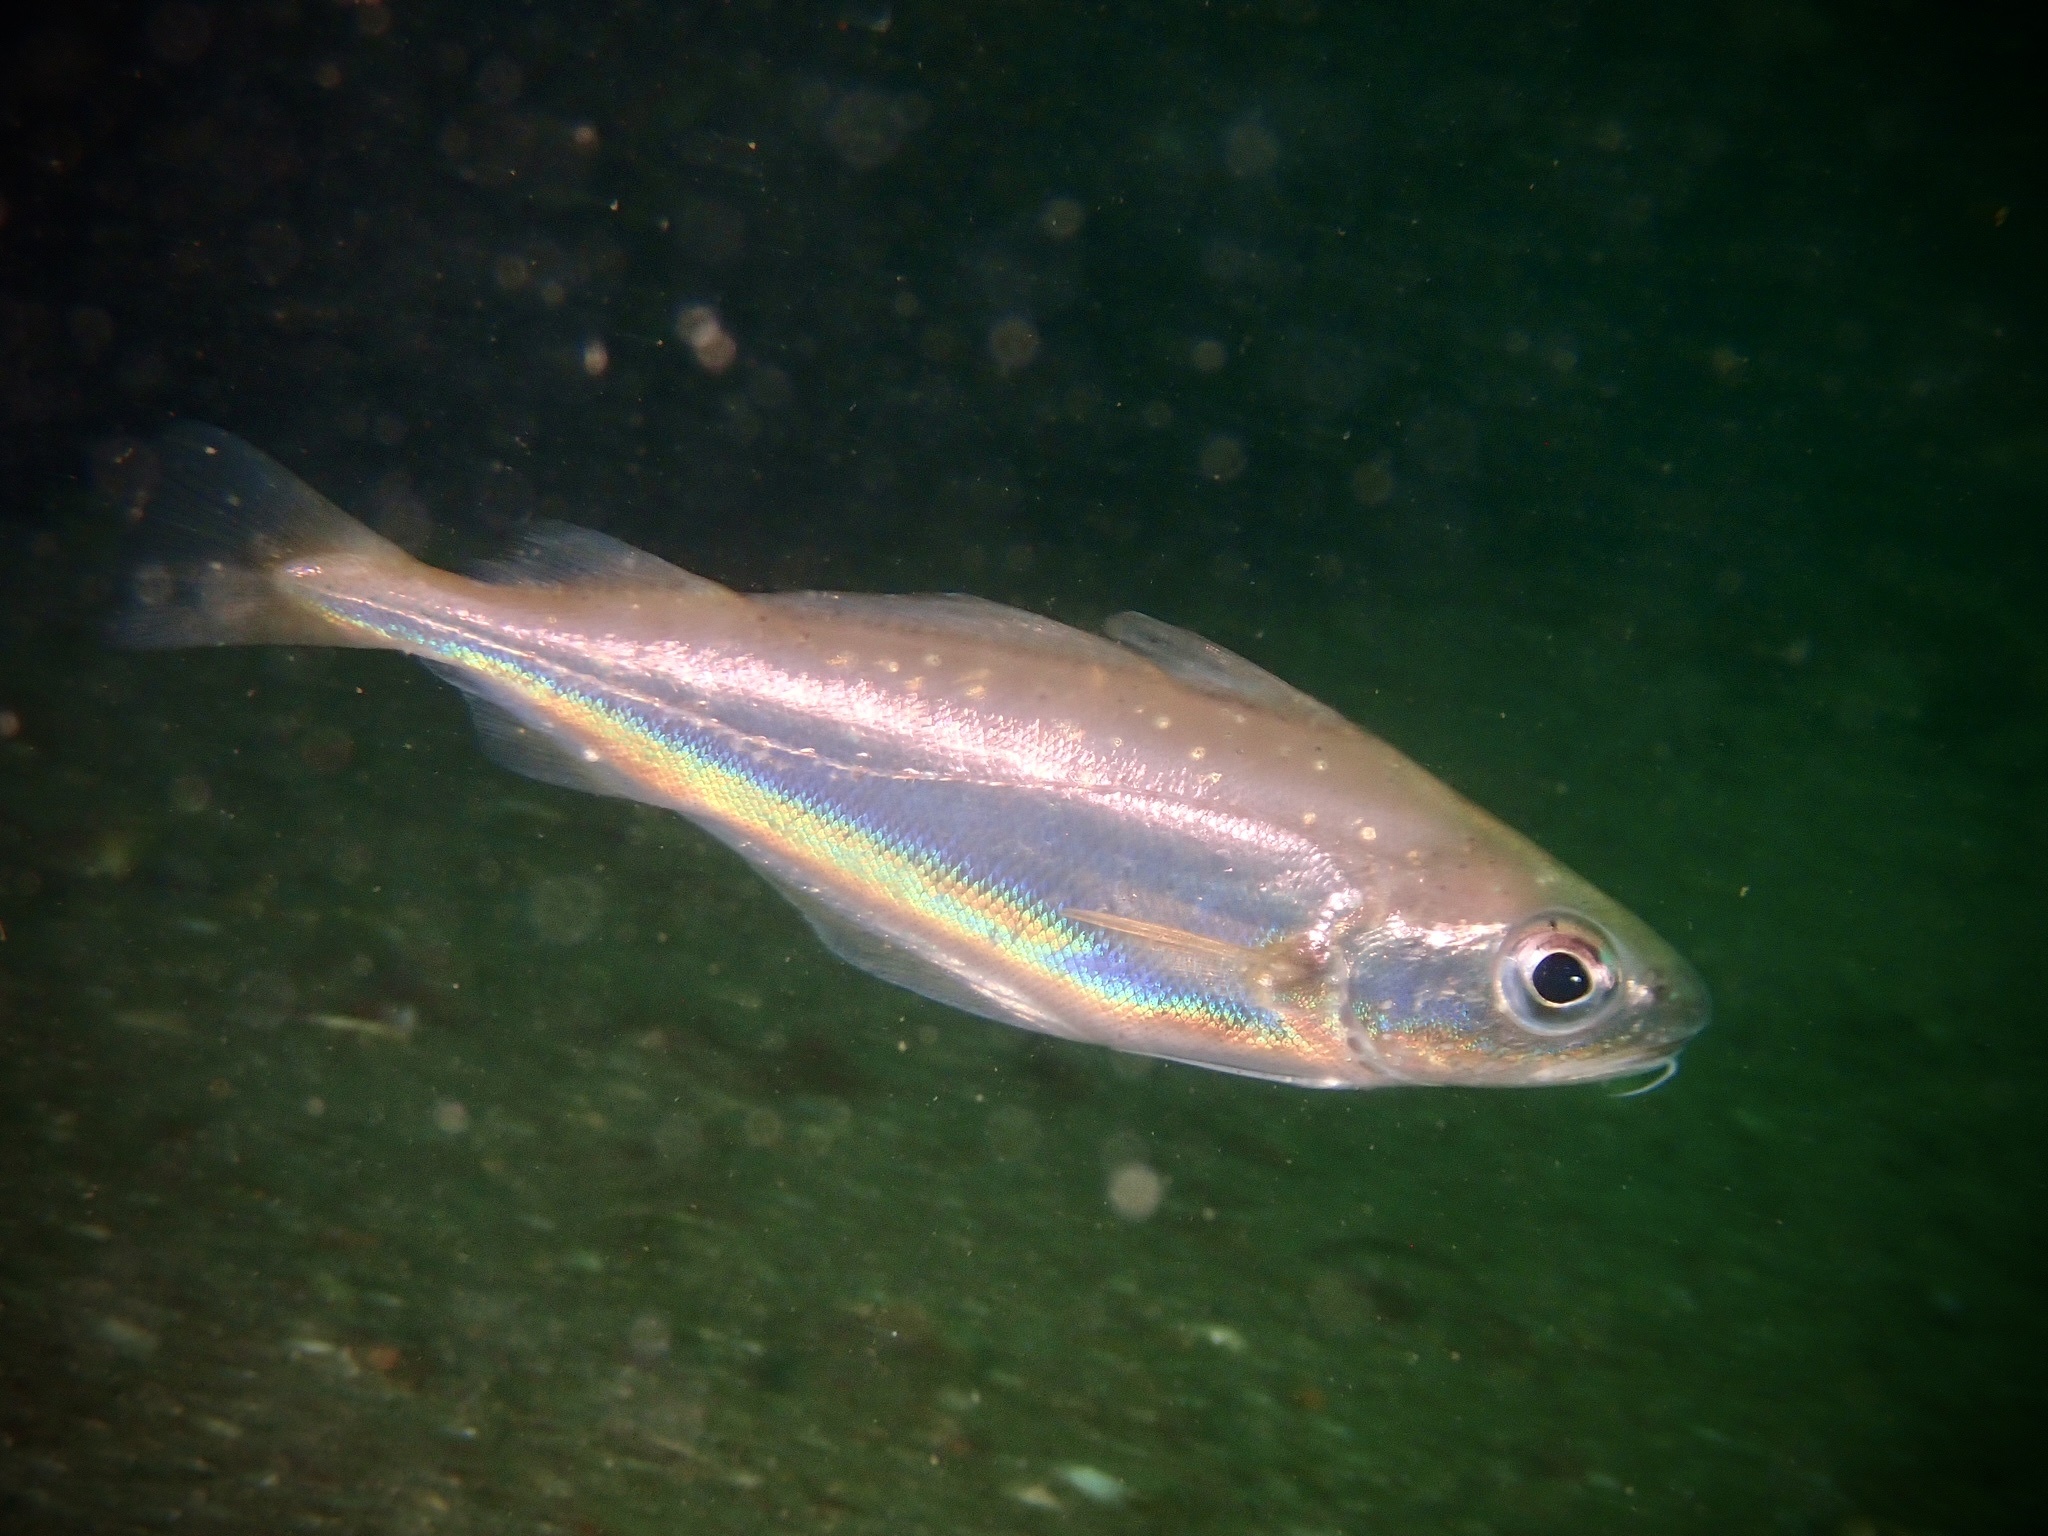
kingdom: Animalia
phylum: Chordata
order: Gadiformes
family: Gadidae
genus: Trisopterus
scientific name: Trisopterus minutus
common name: Poor cod
